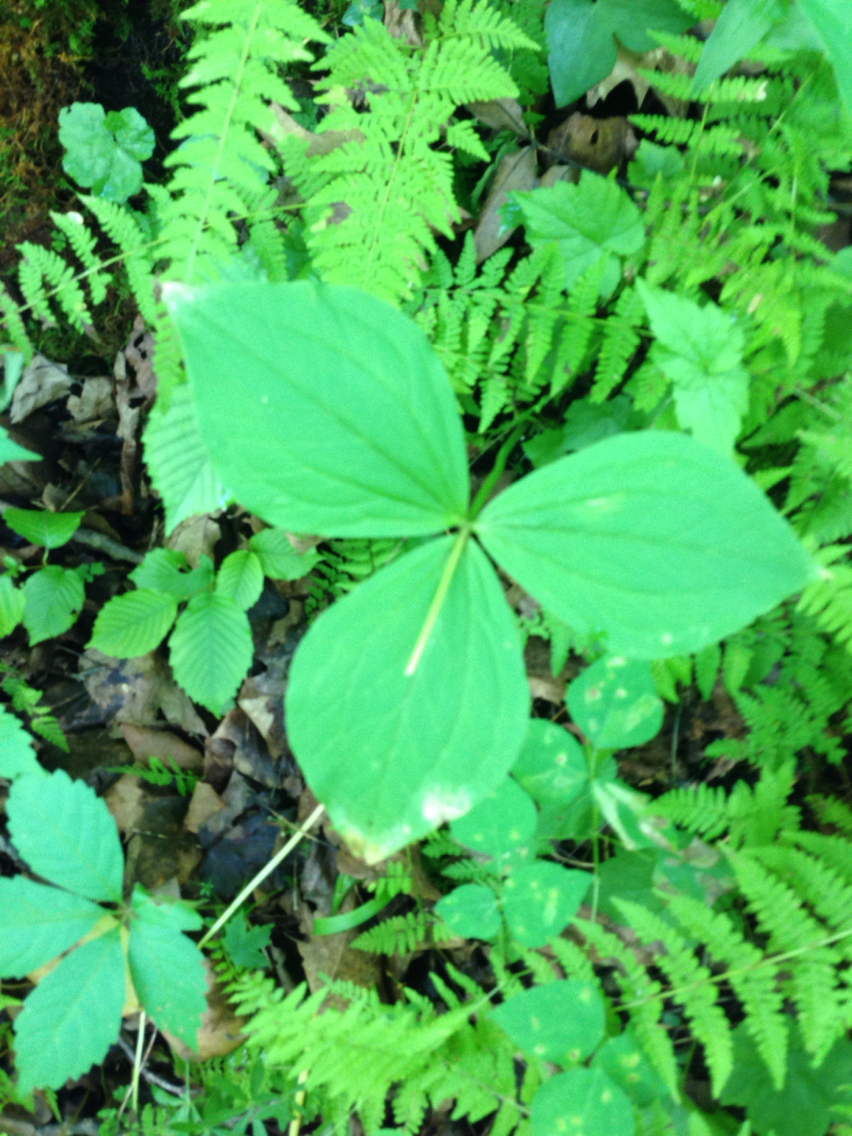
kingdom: Plantae
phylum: Tracheophyta
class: Liliopsida
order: Liliales
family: Melanthiaceae
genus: Trillium
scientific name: Trillium grandiflorum
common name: Great white trillium
